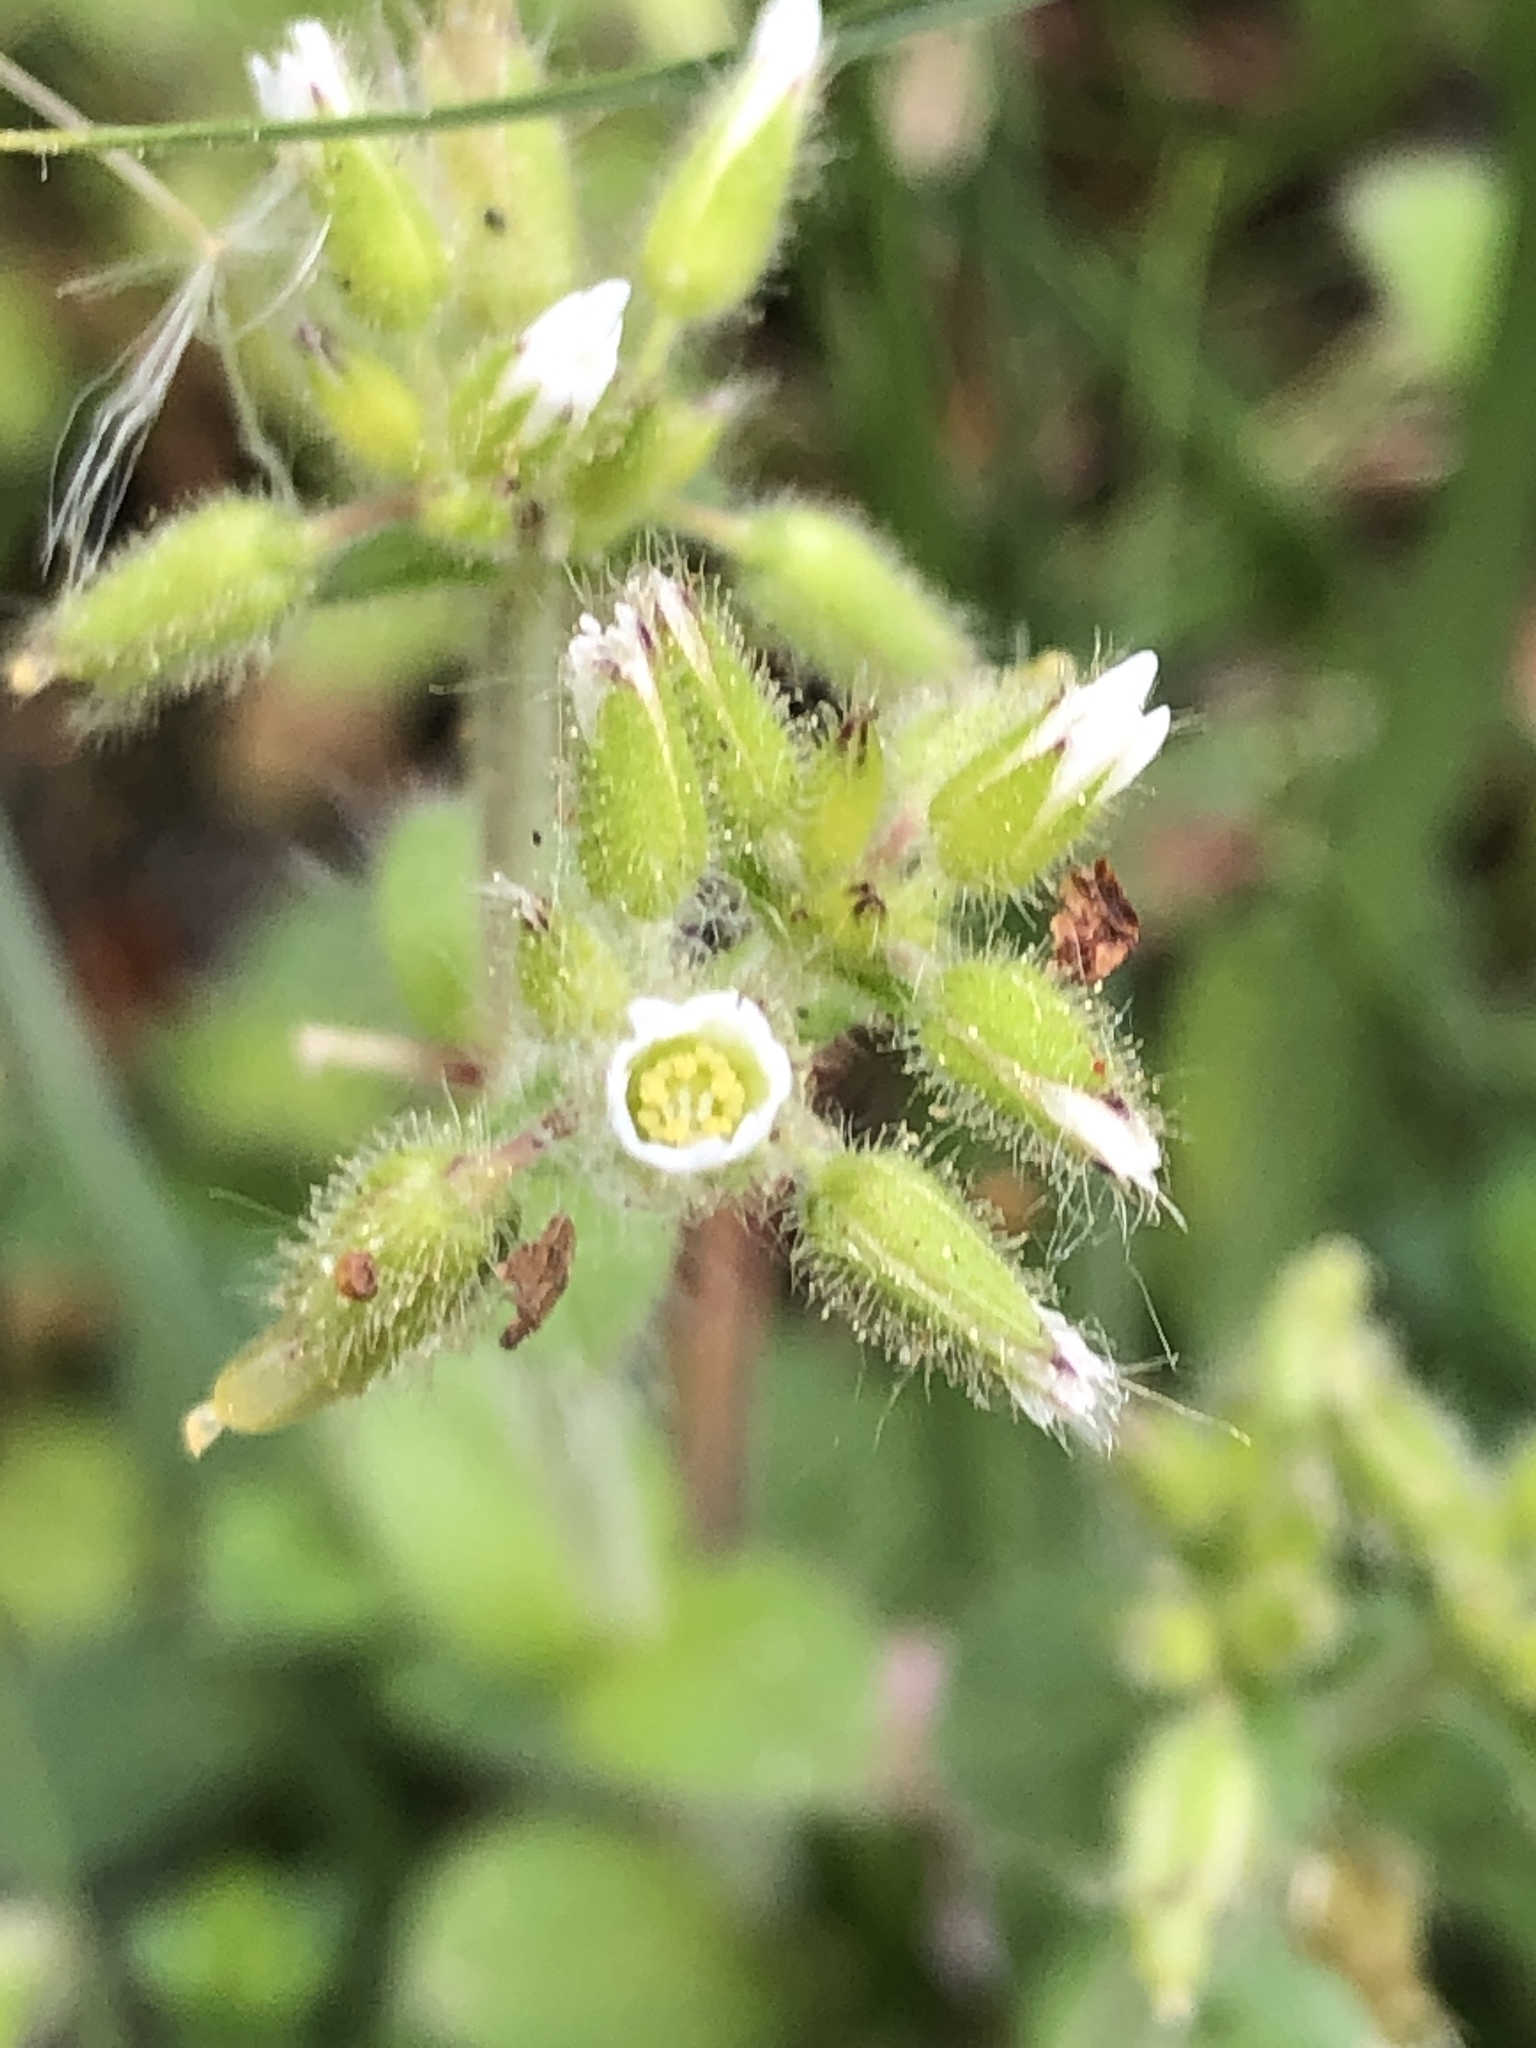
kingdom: Plantae
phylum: Tracheophyta
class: Magnoliopsida
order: Caryophyllales
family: Caryophyllaceae
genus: Cerastium
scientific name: Cerastium glomeratum
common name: Sticky chickweed
